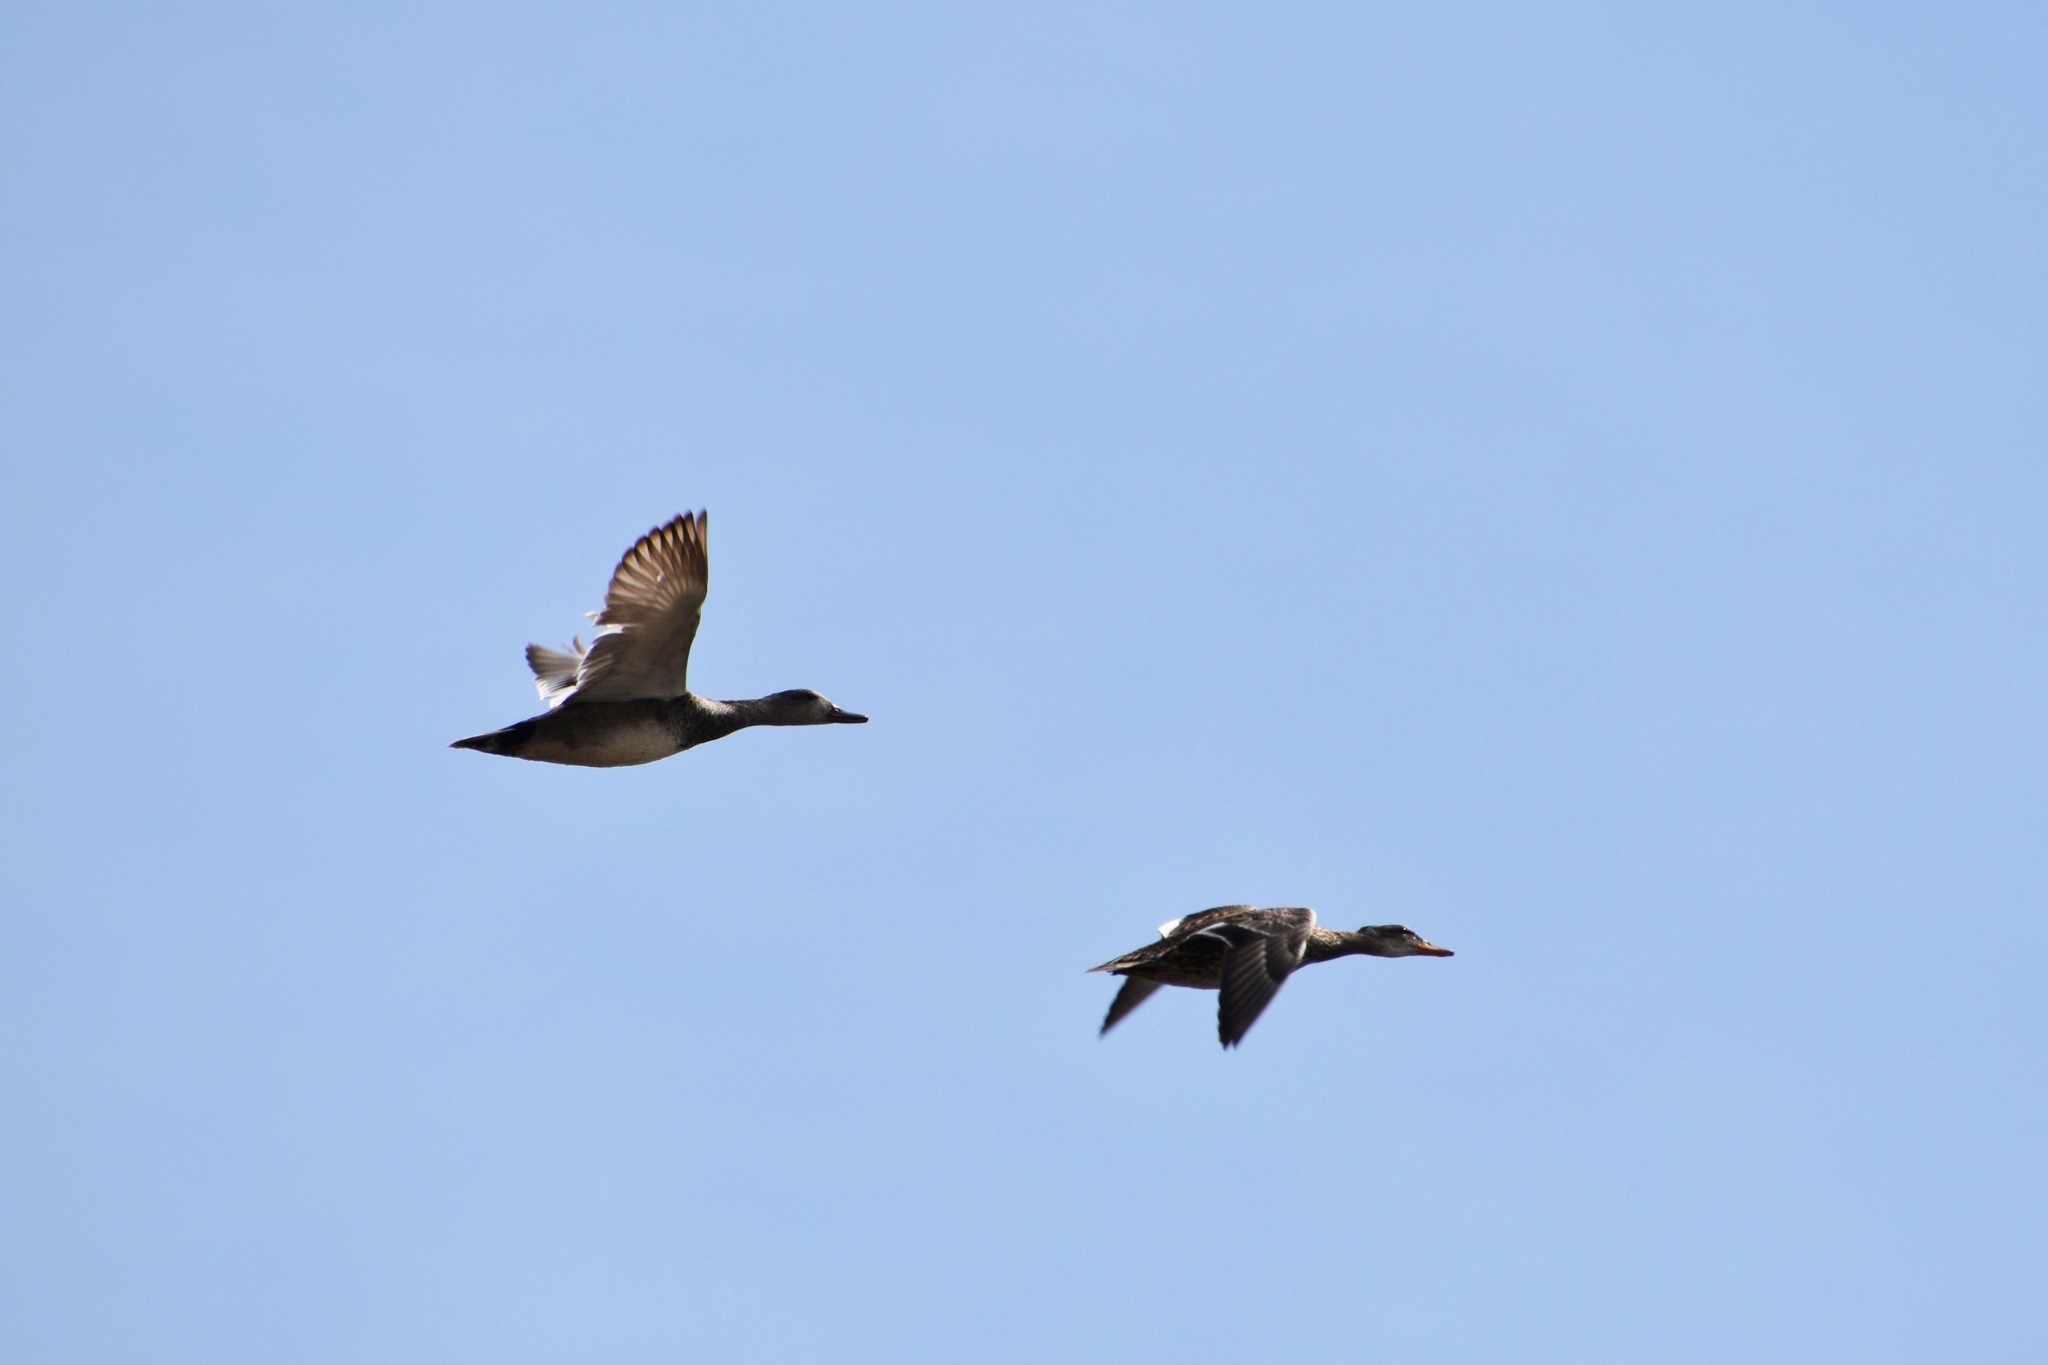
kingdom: Animalia
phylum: Chordata
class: Aves
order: Anseriformes
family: Anatidae
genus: Mareca
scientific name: Mareca strepera
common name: Gadwall
